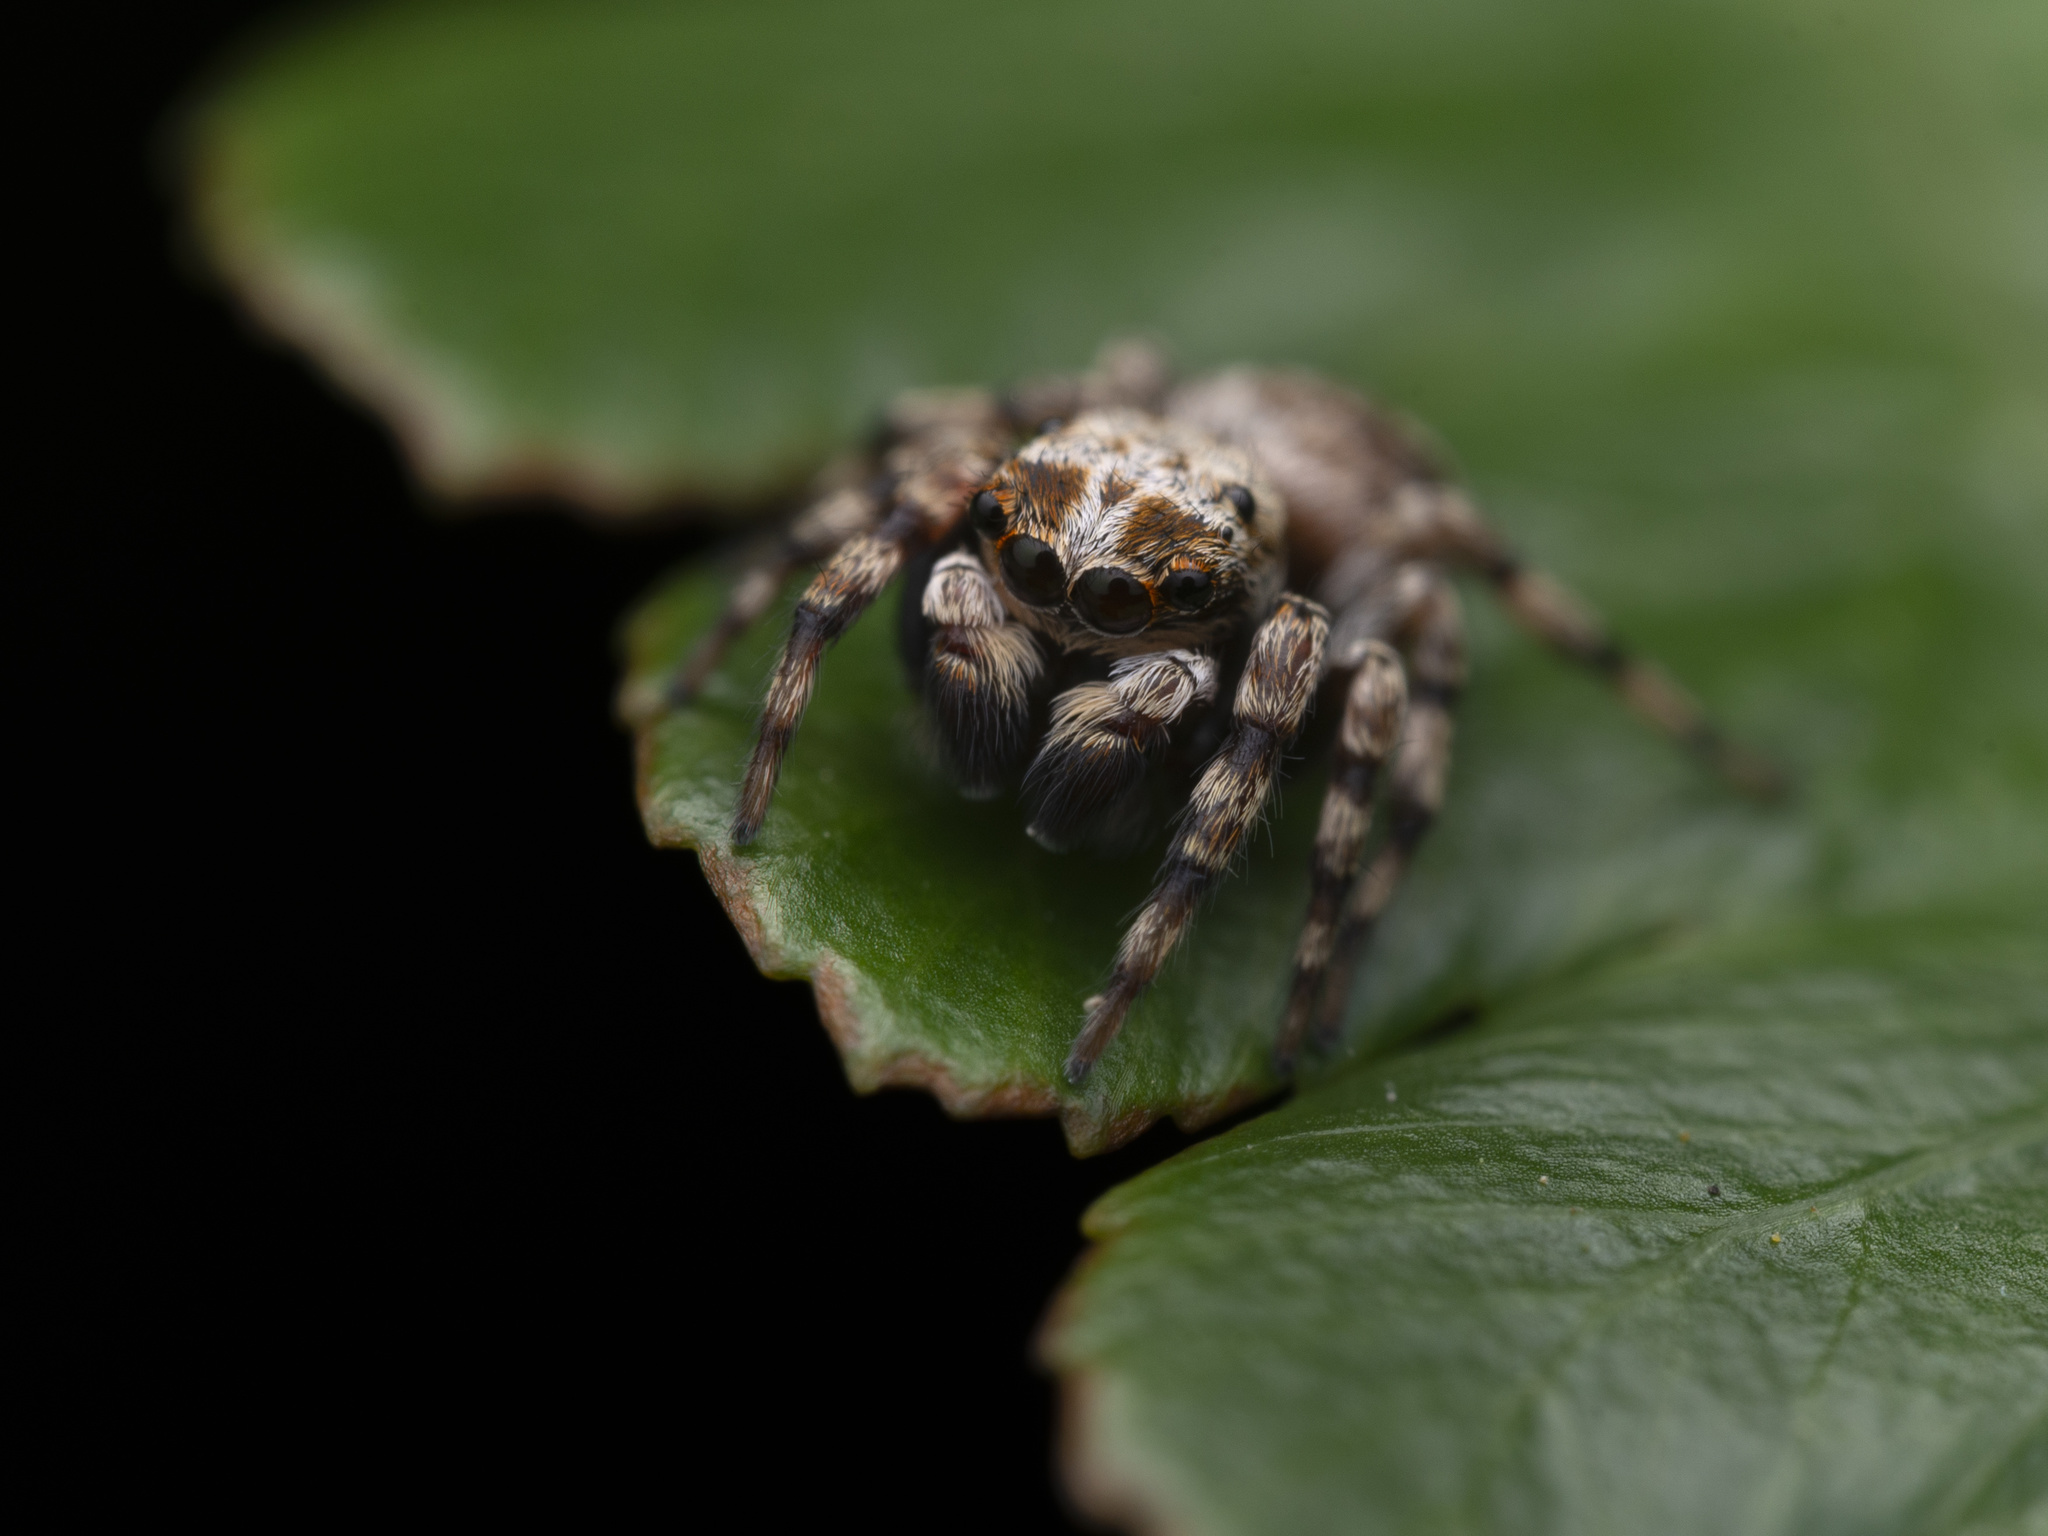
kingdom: Animalia
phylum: Arthropoda
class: Arachnida
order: Araneae
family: Salticidae
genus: Habrocestum
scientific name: Habrocestum hongkongiense
